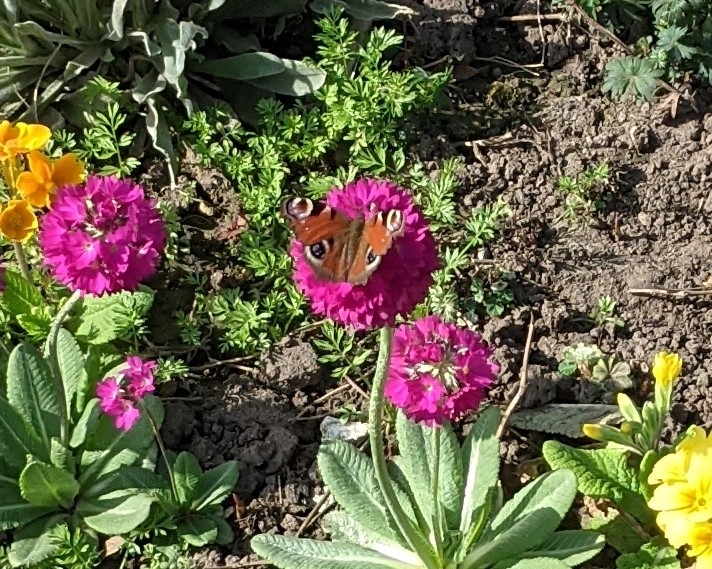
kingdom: Animalia
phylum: Arthropoda
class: Insecta
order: Lepidoptera
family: Nymphalidae
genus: Aglais
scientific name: Aglais io
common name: Peacock
